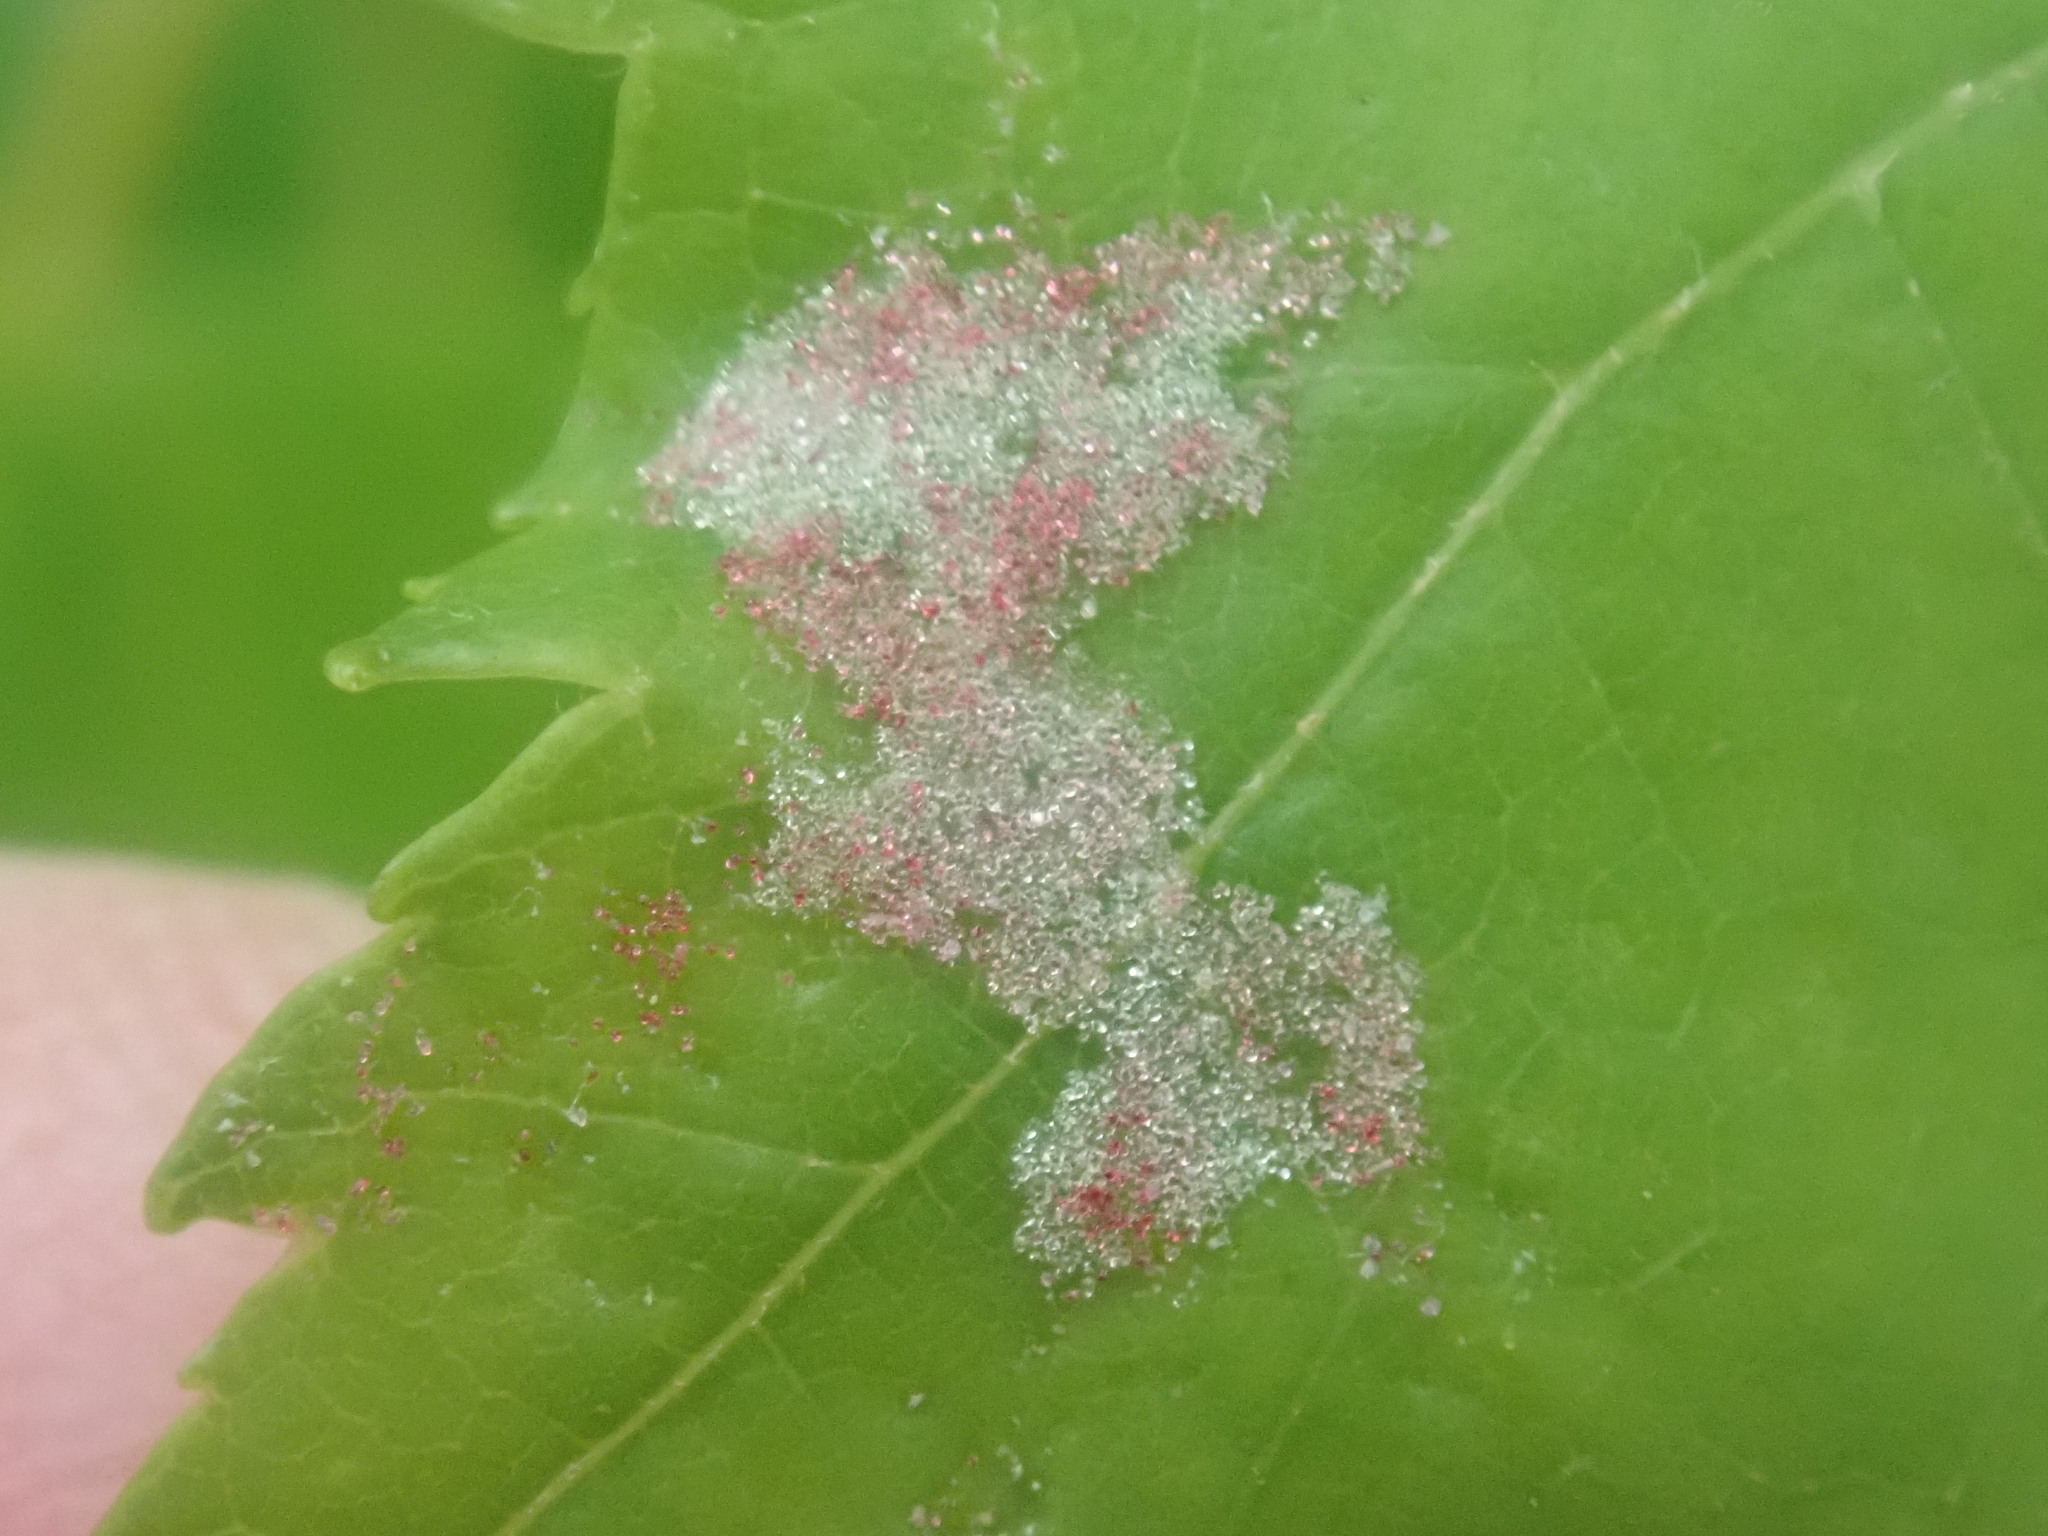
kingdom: Animalia
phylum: Arthropoda
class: Arachnida
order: Trombidiformes
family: Eriophyidae
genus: Aculus
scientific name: Aculus
